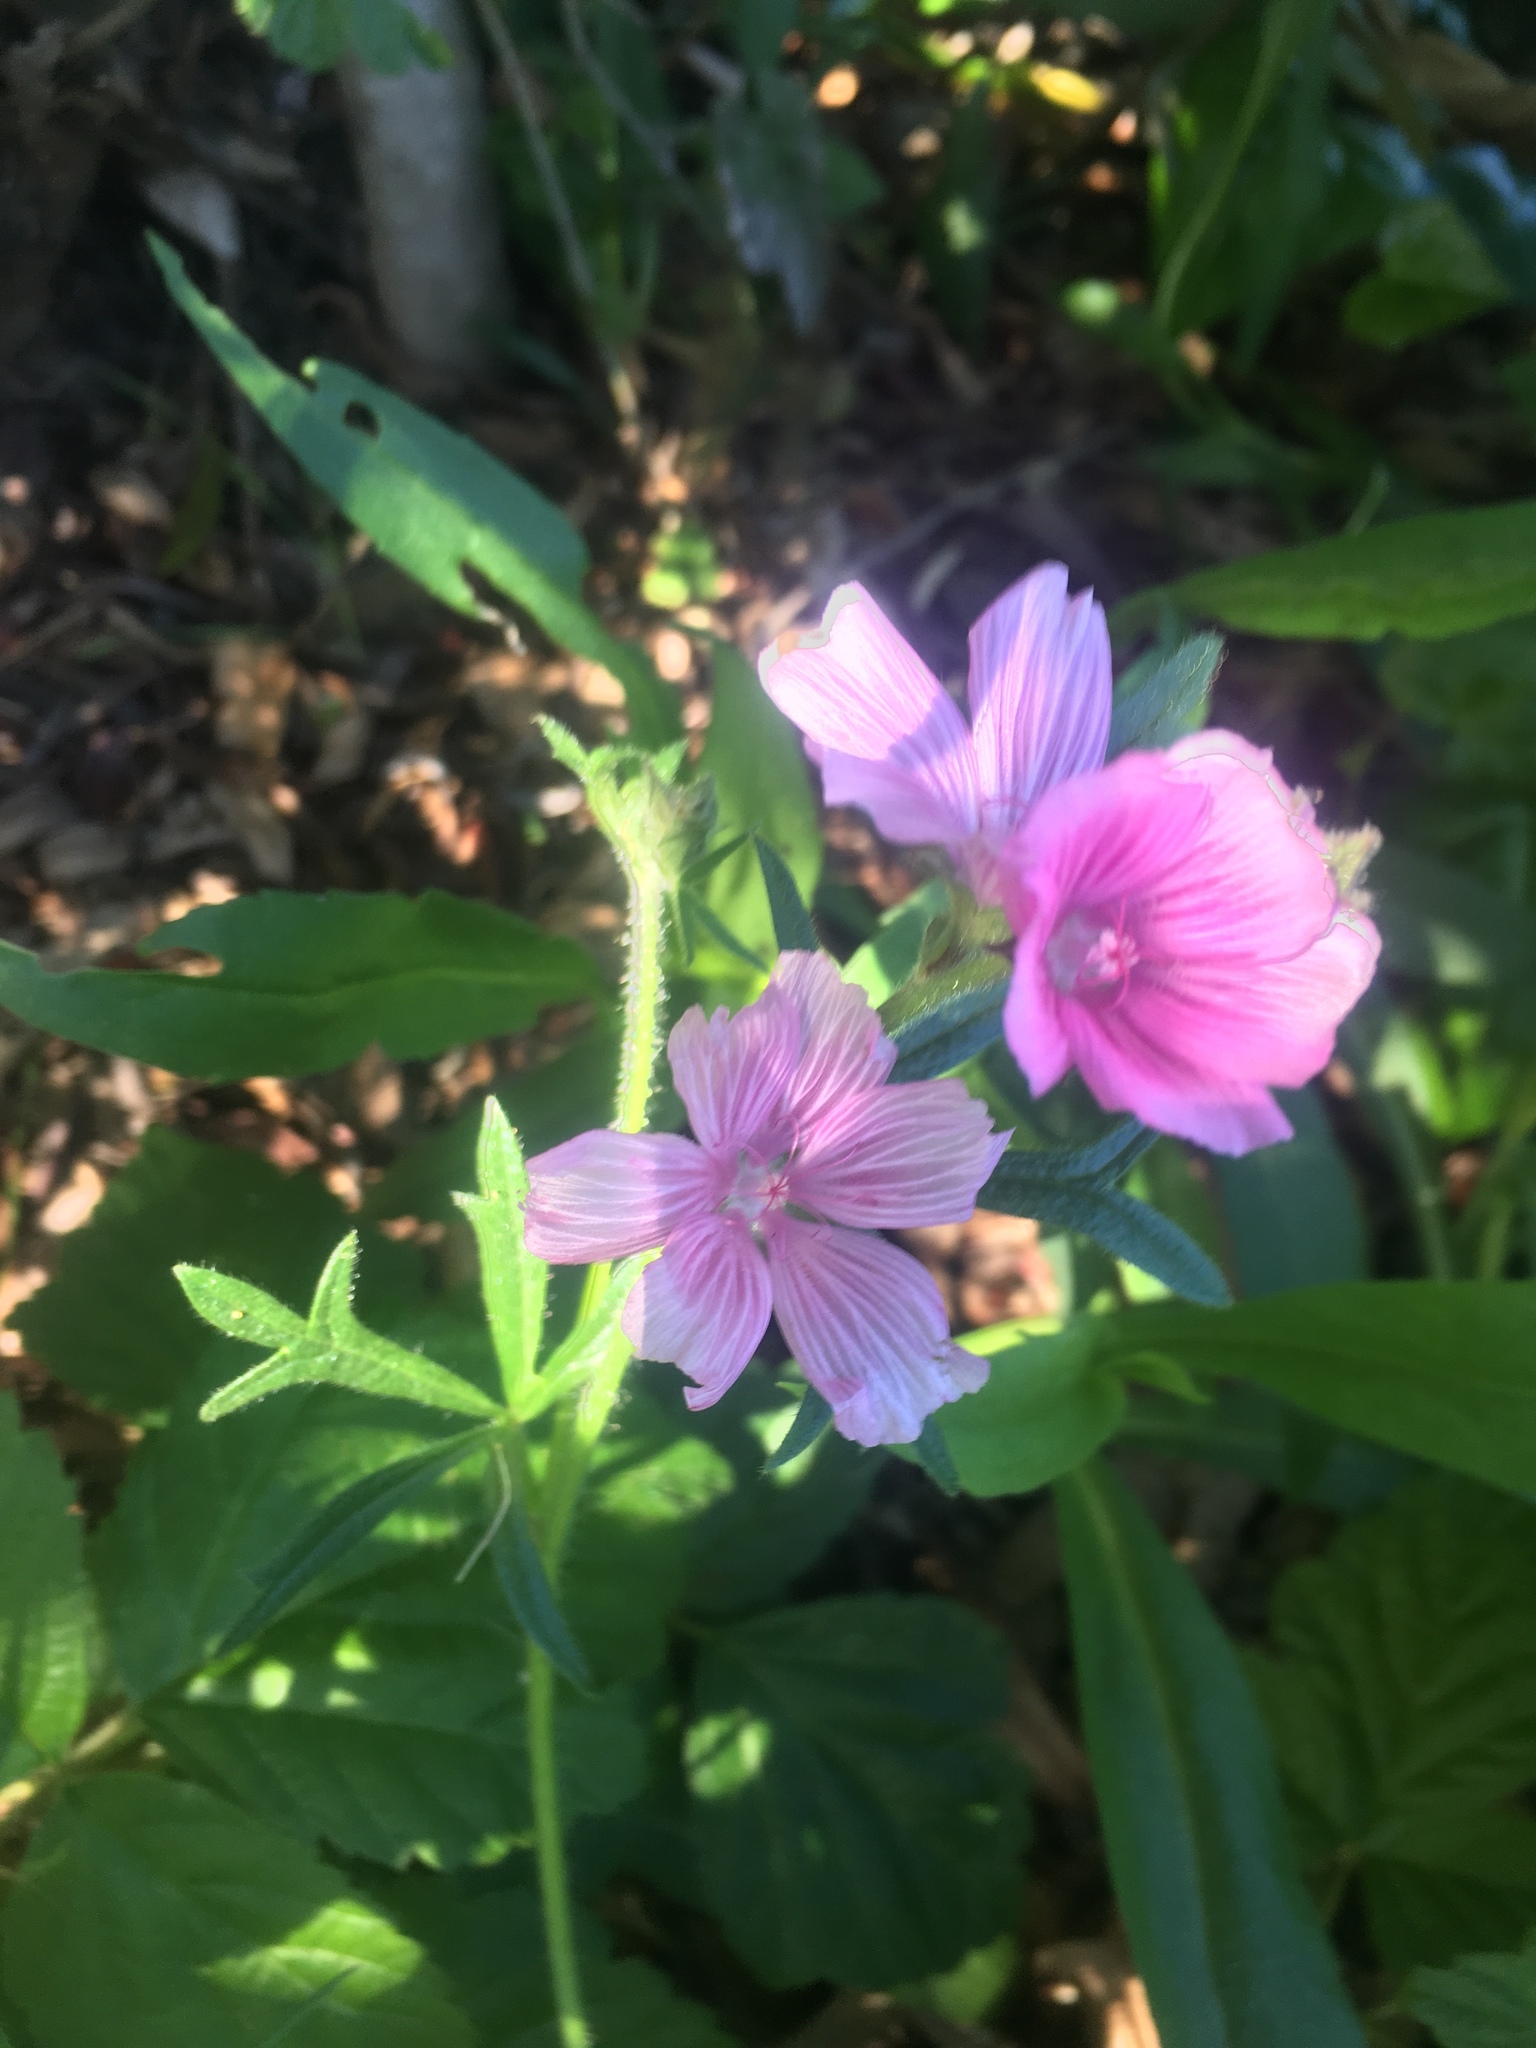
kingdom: Plantae
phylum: Tracheophyta
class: Magnoliopsida
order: Malvales
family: Malvaceae
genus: Sidalcea
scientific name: Sidalcea malviflora
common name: Greek mallow
